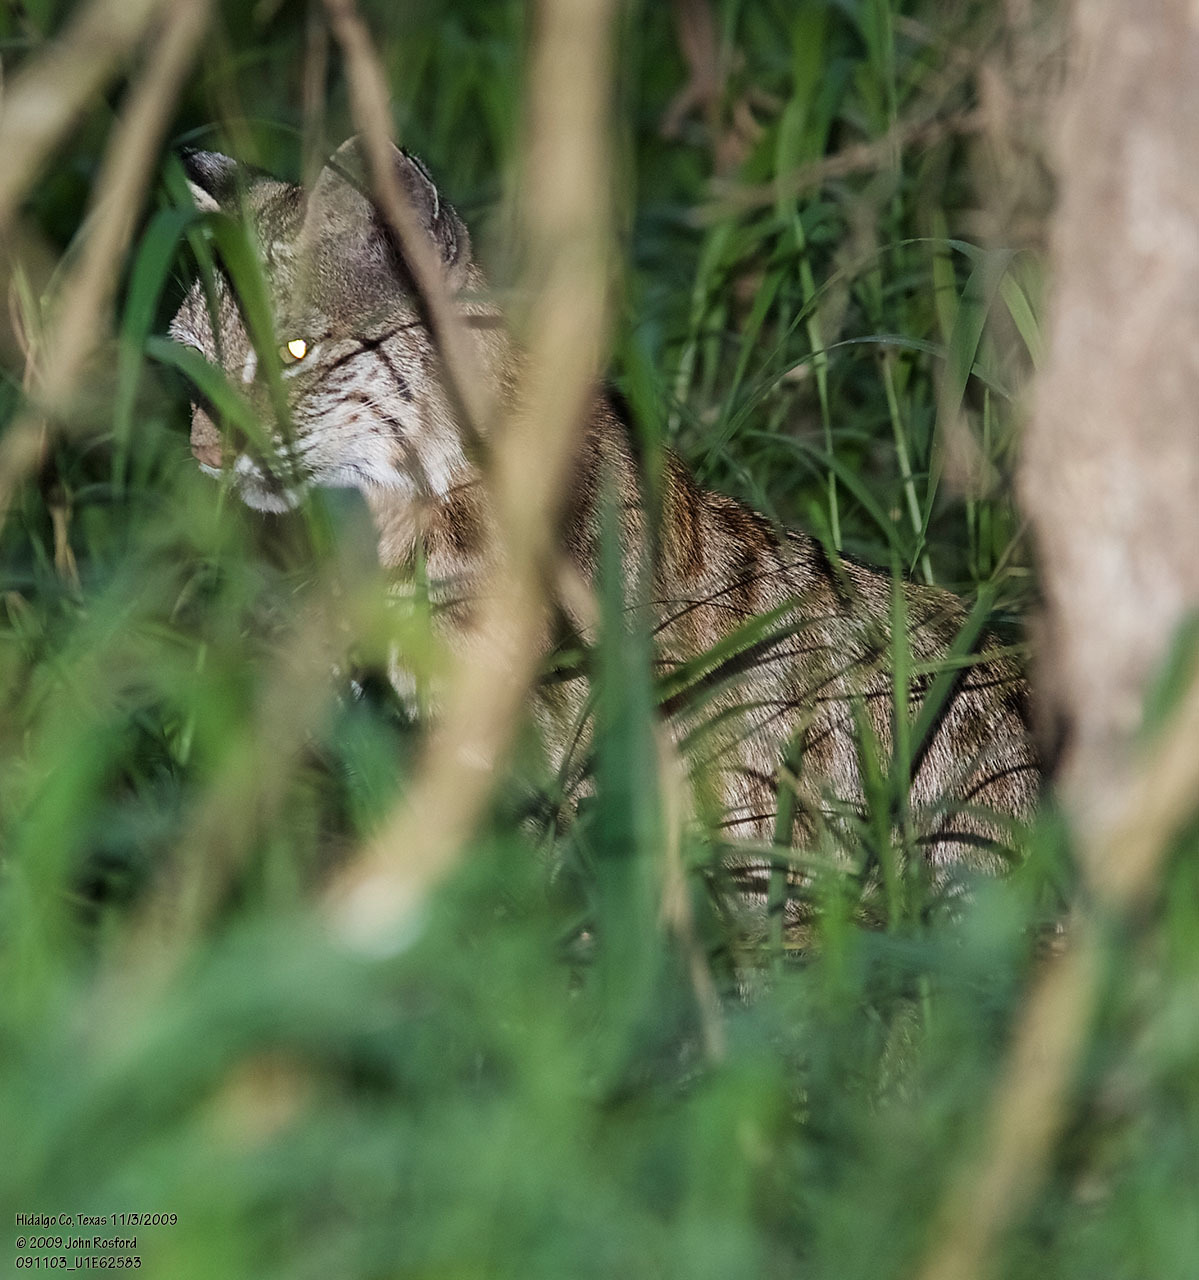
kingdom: Animalia
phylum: Chordata
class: Mammalia
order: Carnivora
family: Felidae
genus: Lynx
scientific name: Lynx rufus
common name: Bobcat
